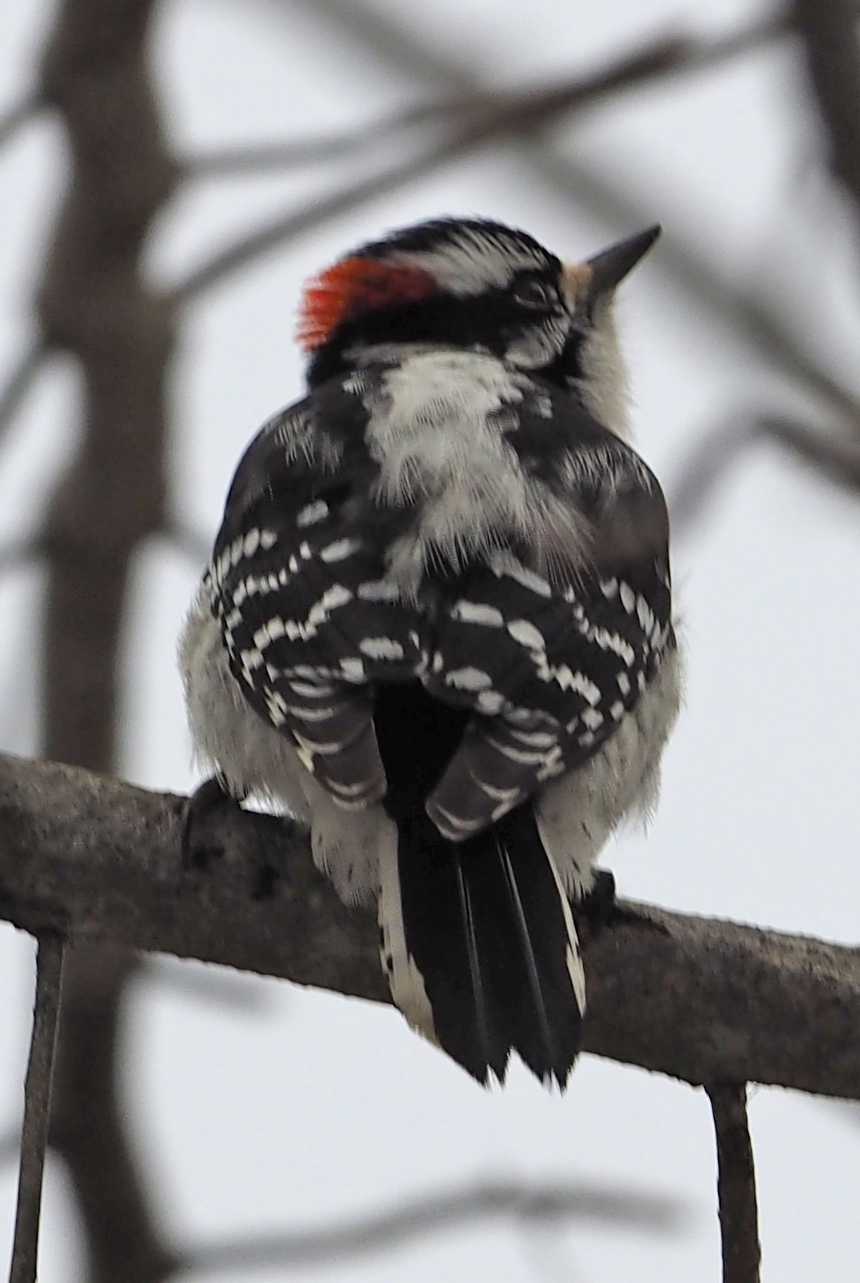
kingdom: Animalia
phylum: Chordata
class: Aves
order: Piciformes
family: Picidae
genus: Dryobates
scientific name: Dryobates pubescens
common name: Downy woodpecker
